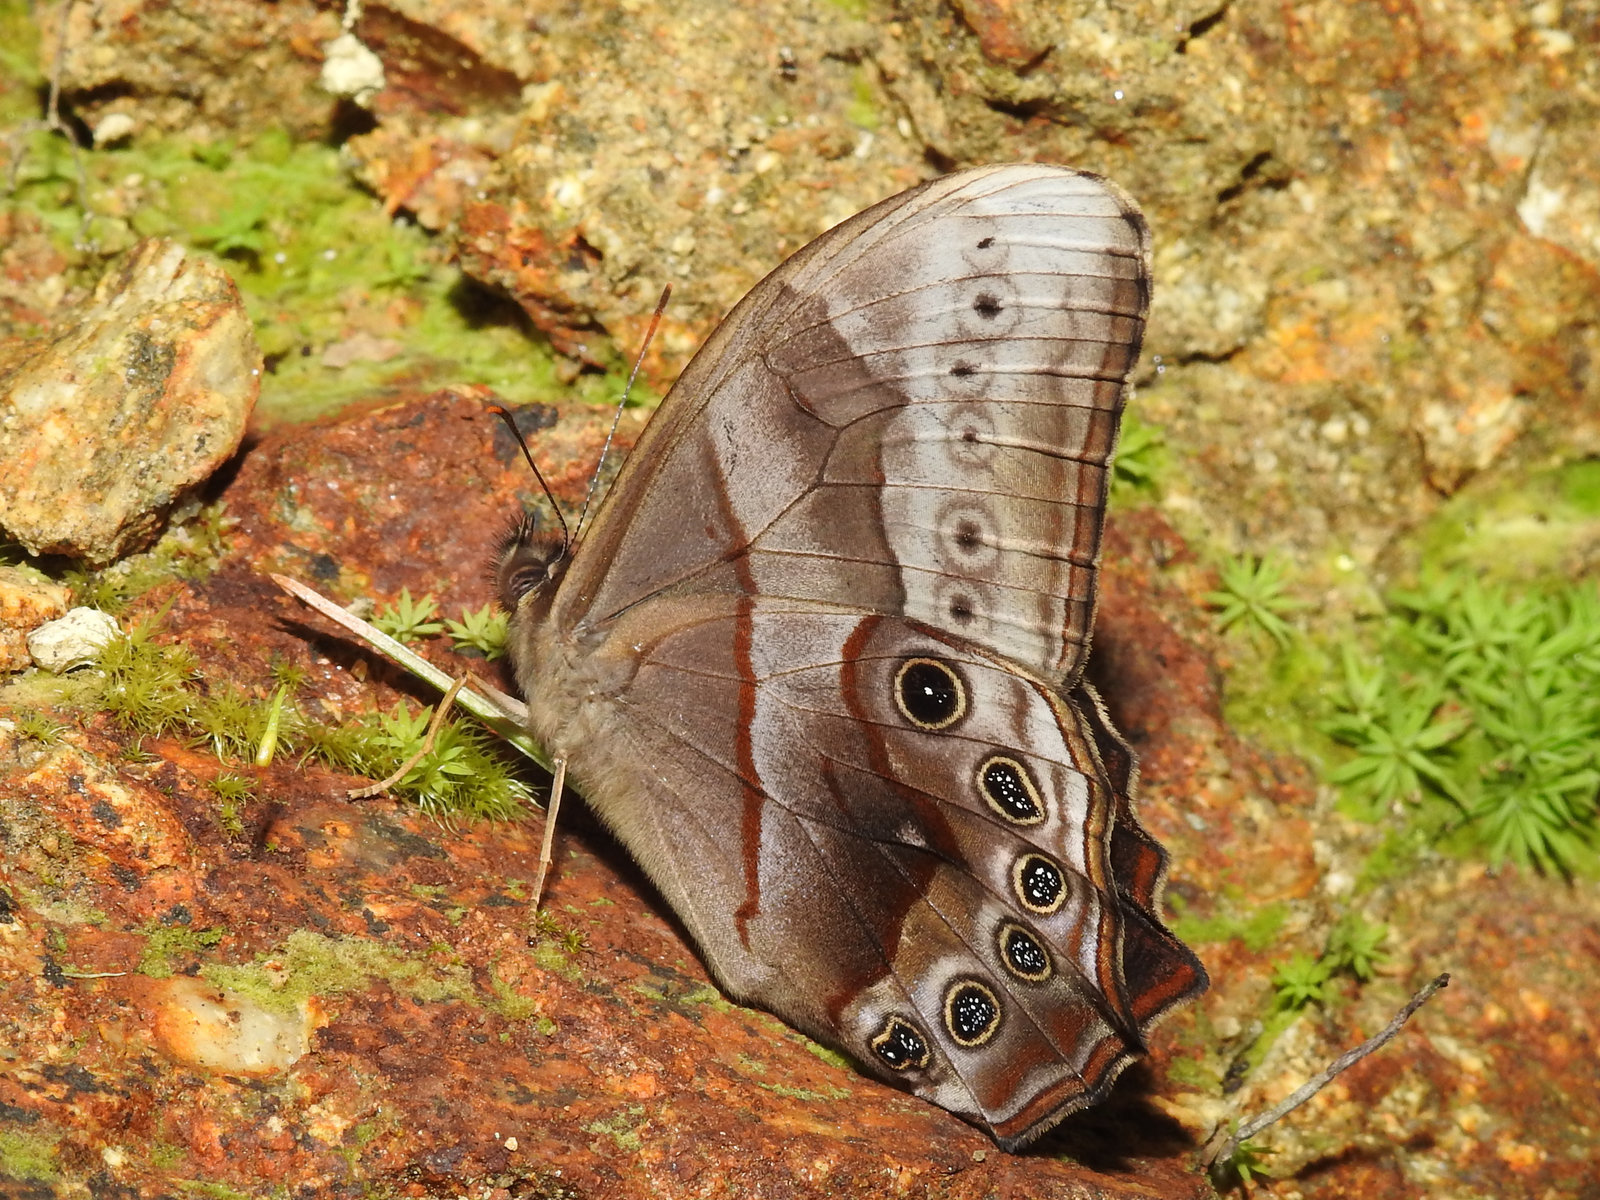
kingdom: Animalia
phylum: Arthropoda
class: Insecta
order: Lepidoptera
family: Nymphalidae
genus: Lethe
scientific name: Lethe chandica
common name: Angled red forester
